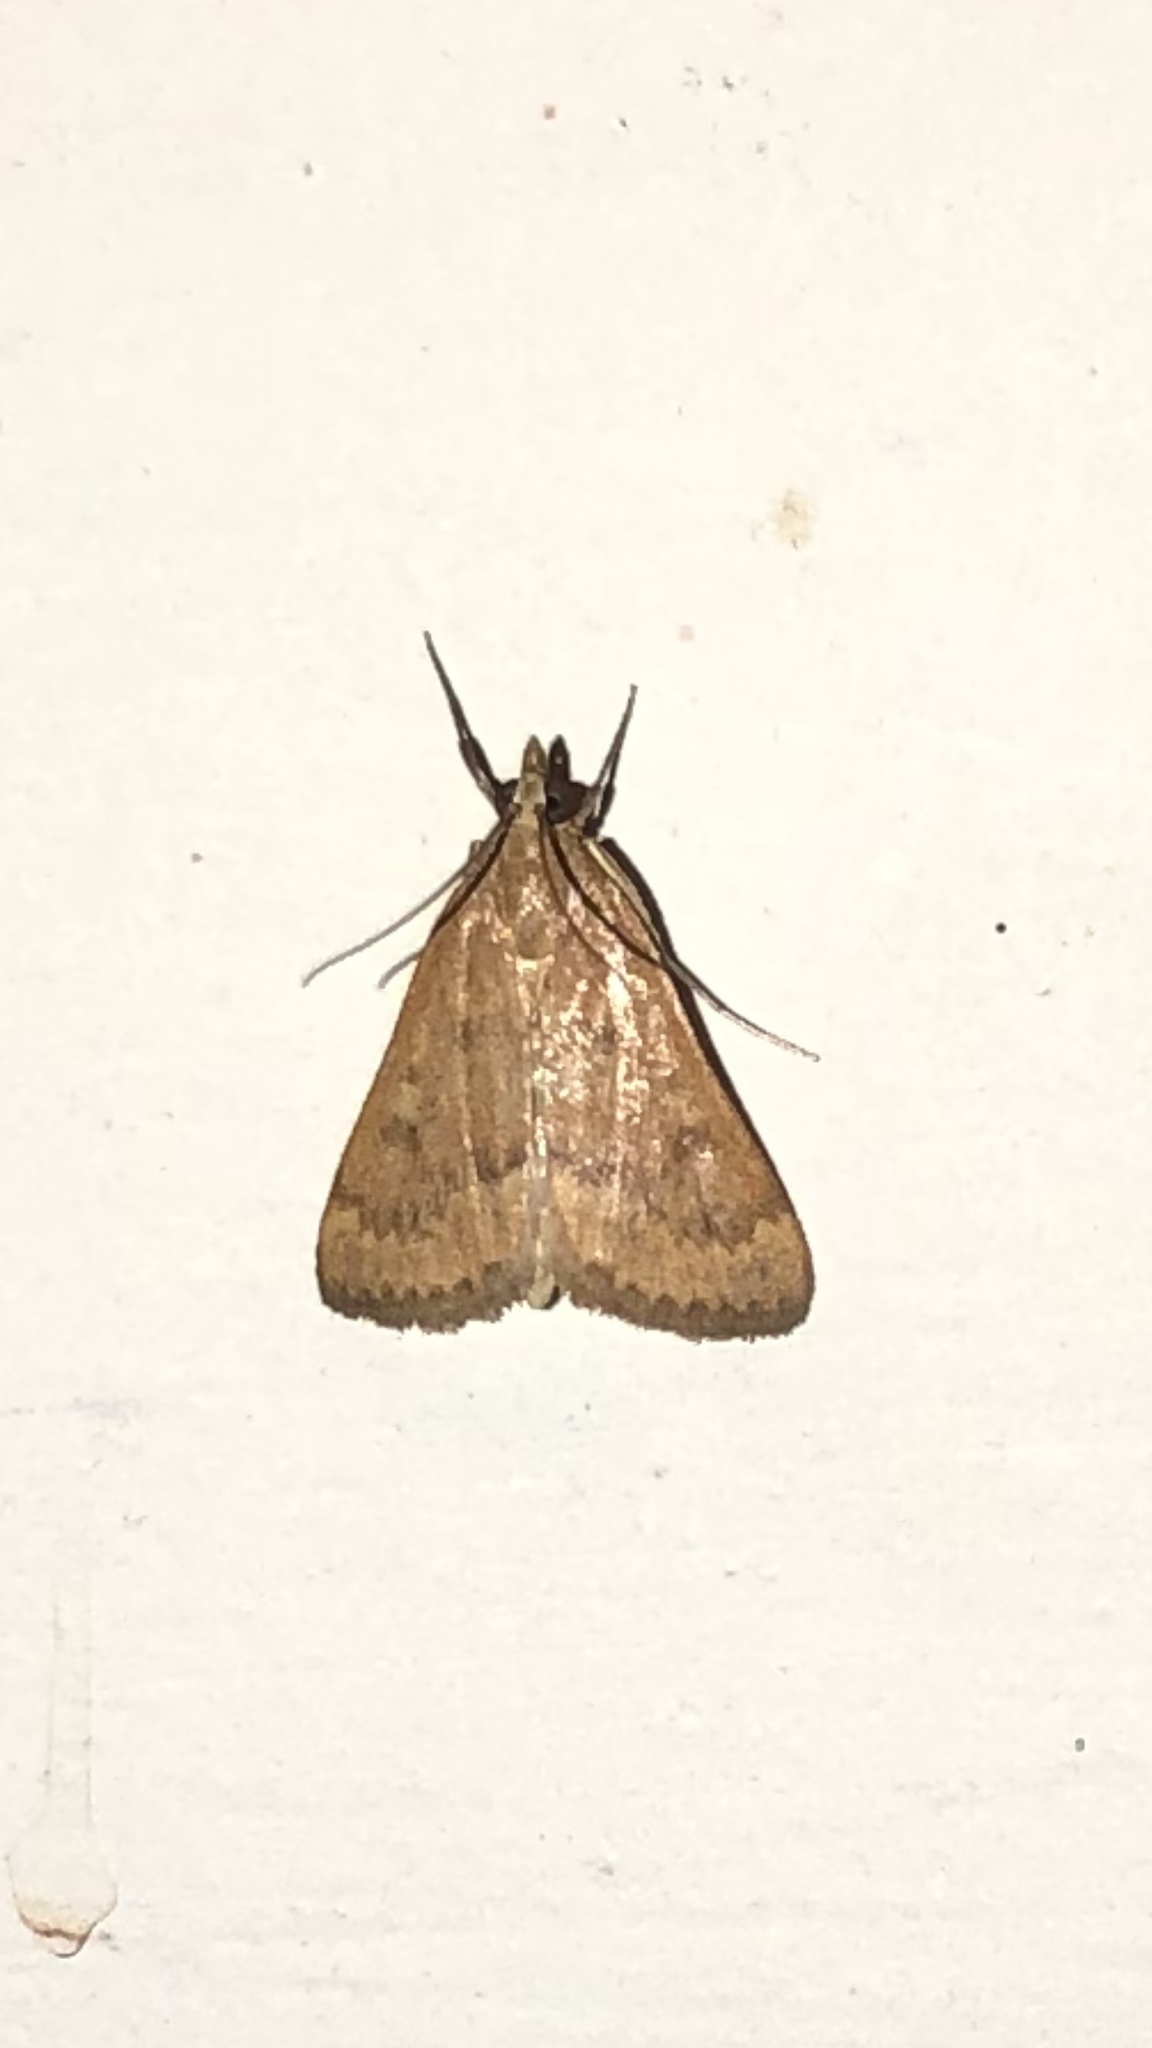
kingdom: Animalia
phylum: Arthropoda
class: Insecta
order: Lepidoptera
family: Crambidae
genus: Achyra
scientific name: Achyra rantalis
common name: Garden webworm
